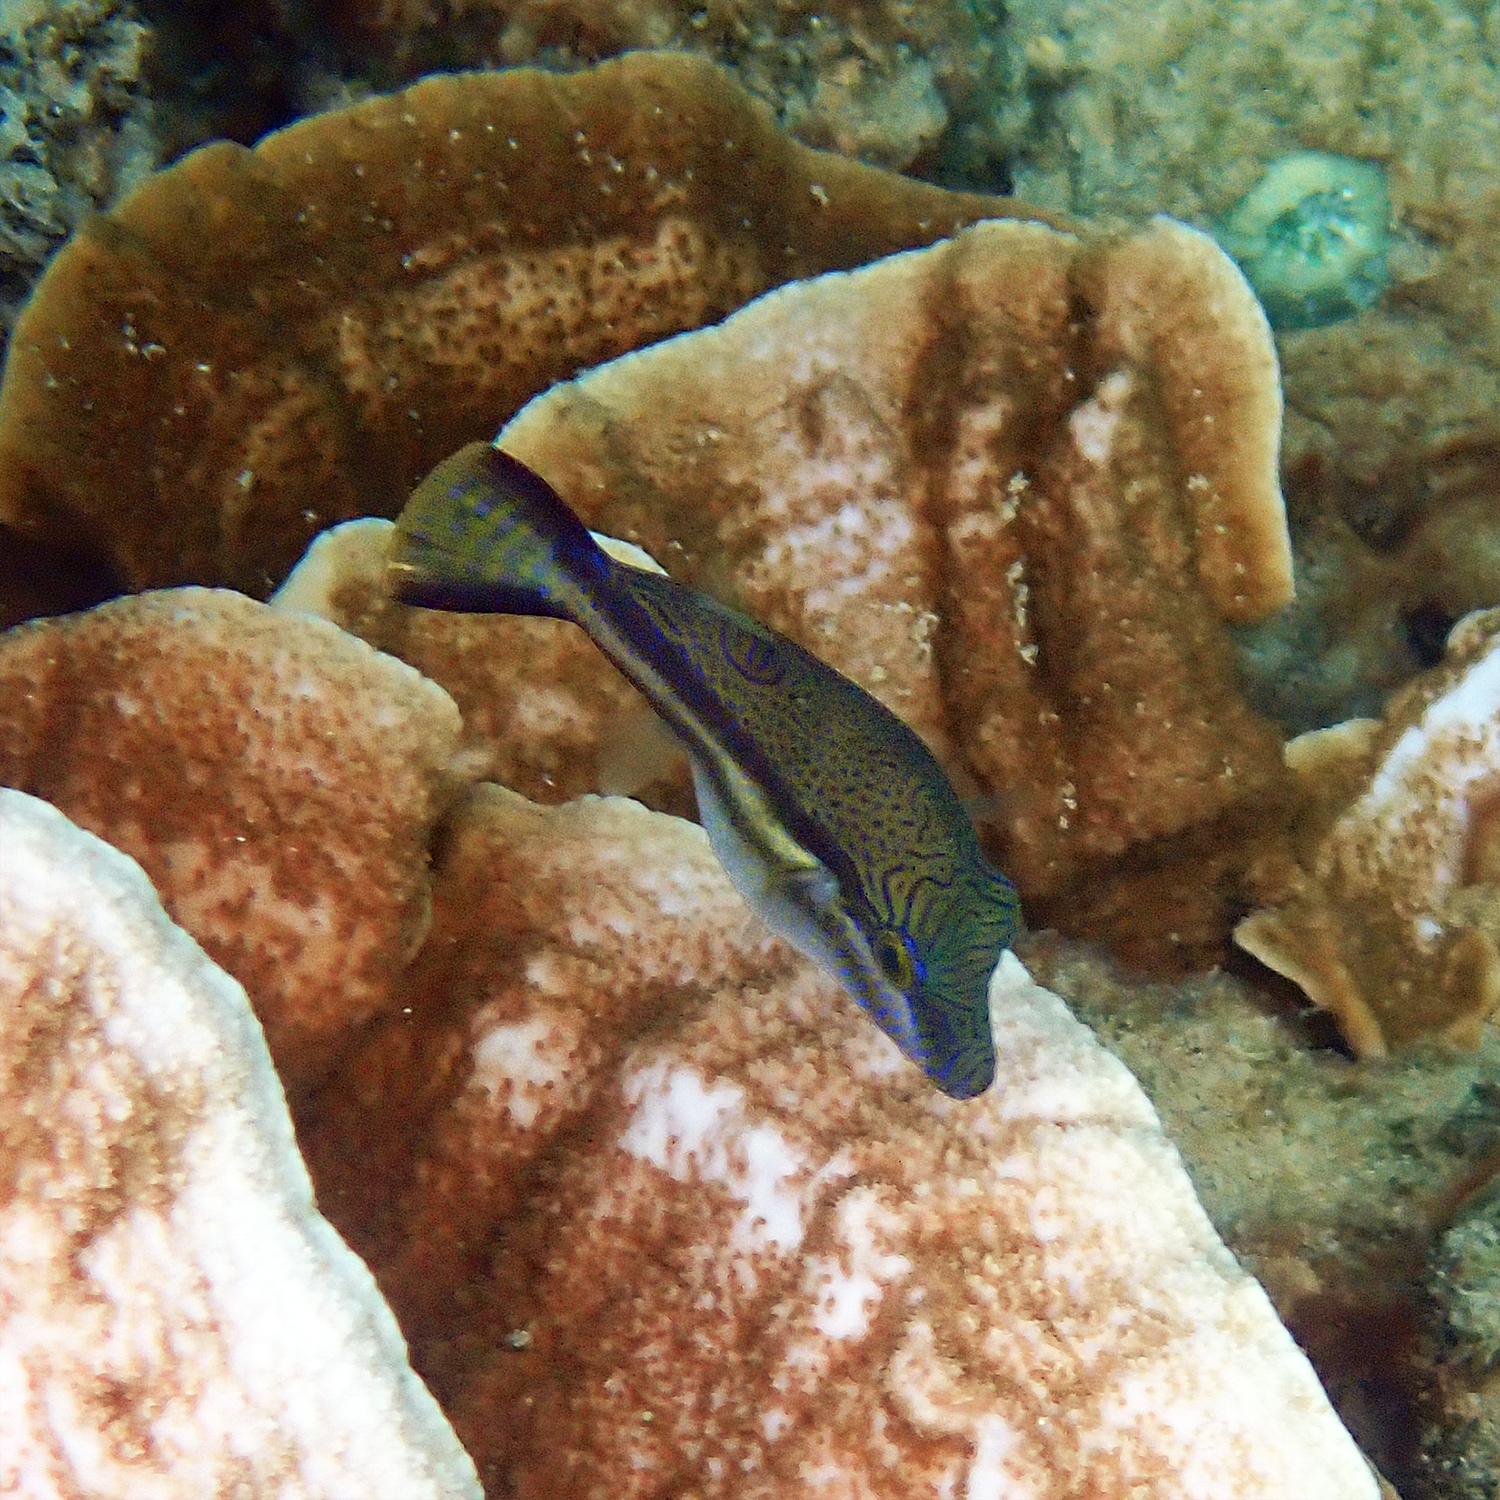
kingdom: Animalia
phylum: Chordata
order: Tetraodontiformes
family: Tetraodontidae
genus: Canthigaster
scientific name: Canthigaster callisterna
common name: Clown toado
